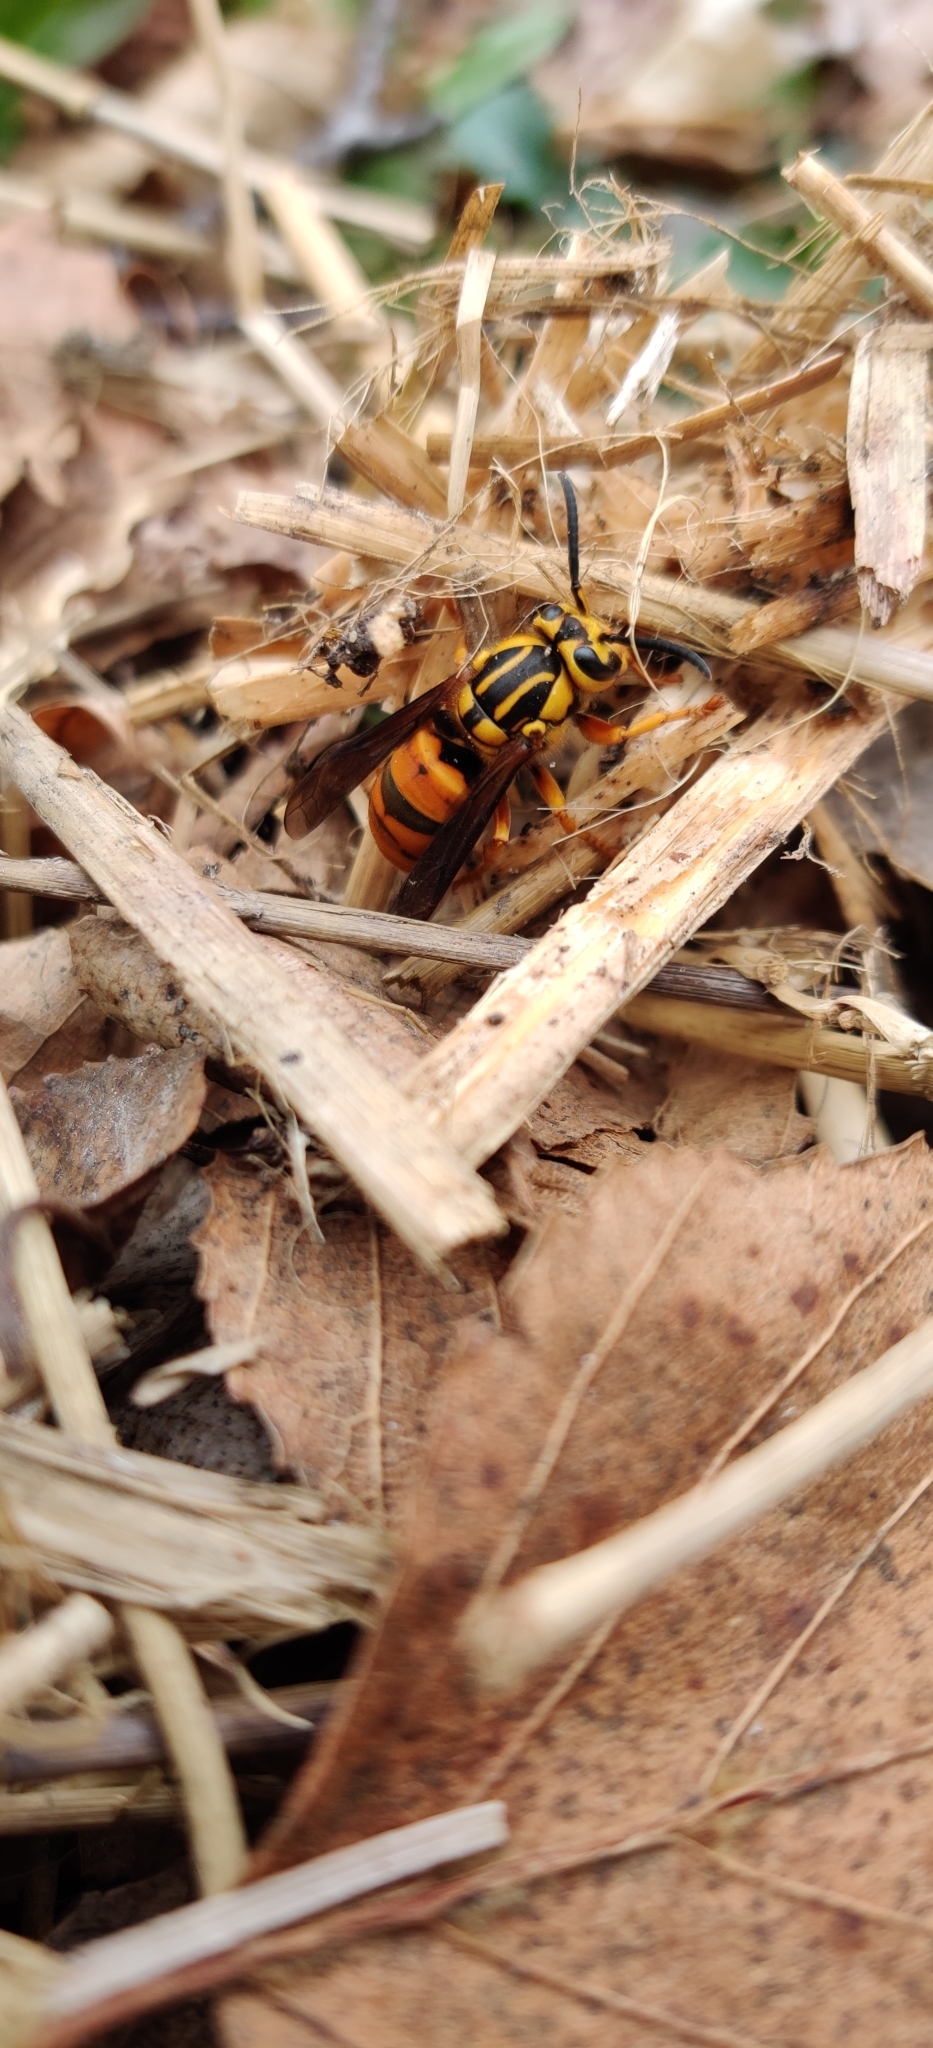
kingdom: Animalia
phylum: Arthropoda
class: Insecta
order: Hymenoptera
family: Vespidae
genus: Vespula
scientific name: Vespula squamosa
